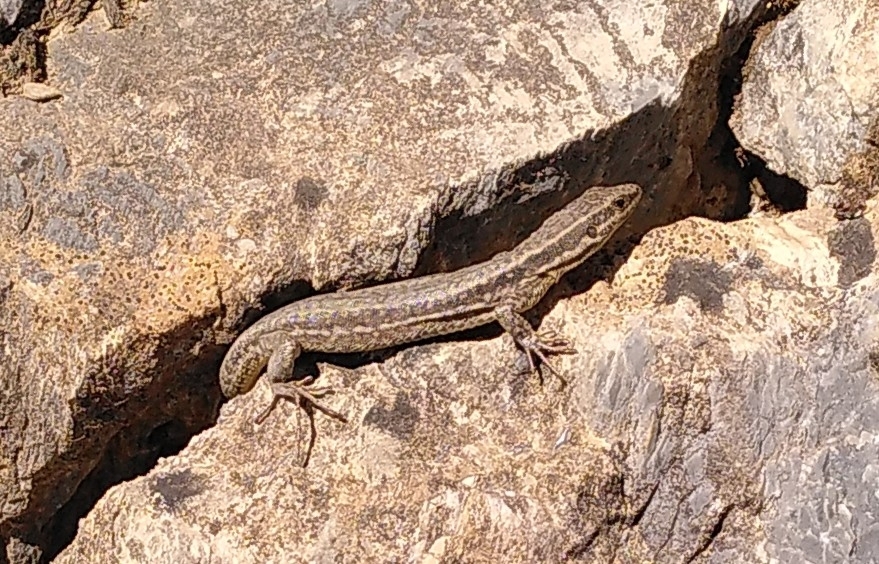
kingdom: Animalia
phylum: Chordata
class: Squamata
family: Lacertidae
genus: Podarcis
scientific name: Podarcis muralis
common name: Common wall lizard
